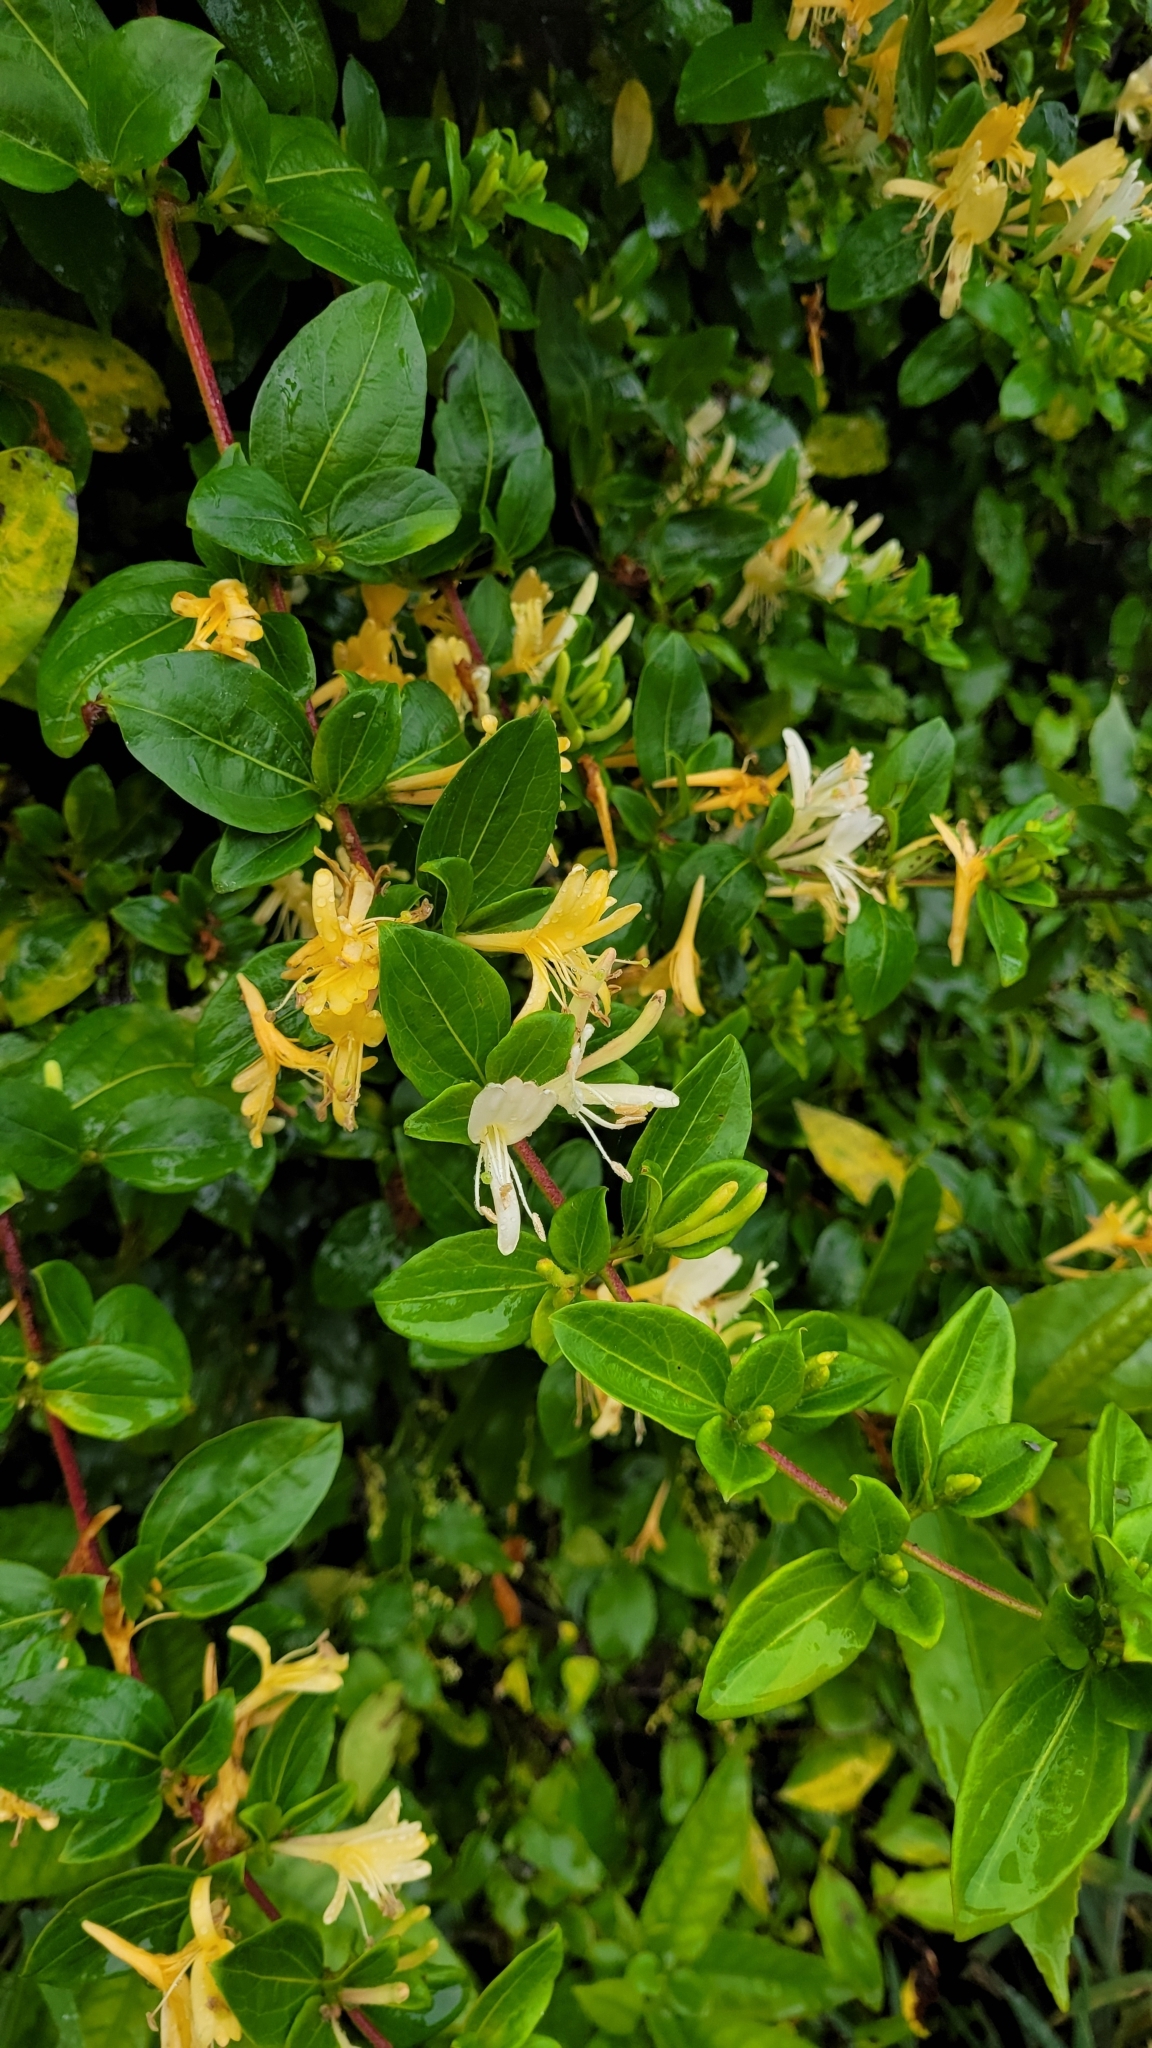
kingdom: Plantae
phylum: Tracheophyta
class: Magnoliopsida
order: Dipsacales
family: Caprifoliaceae
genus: Lonicera
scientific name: Lonicera japonica
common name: Japanese honeysuckle
